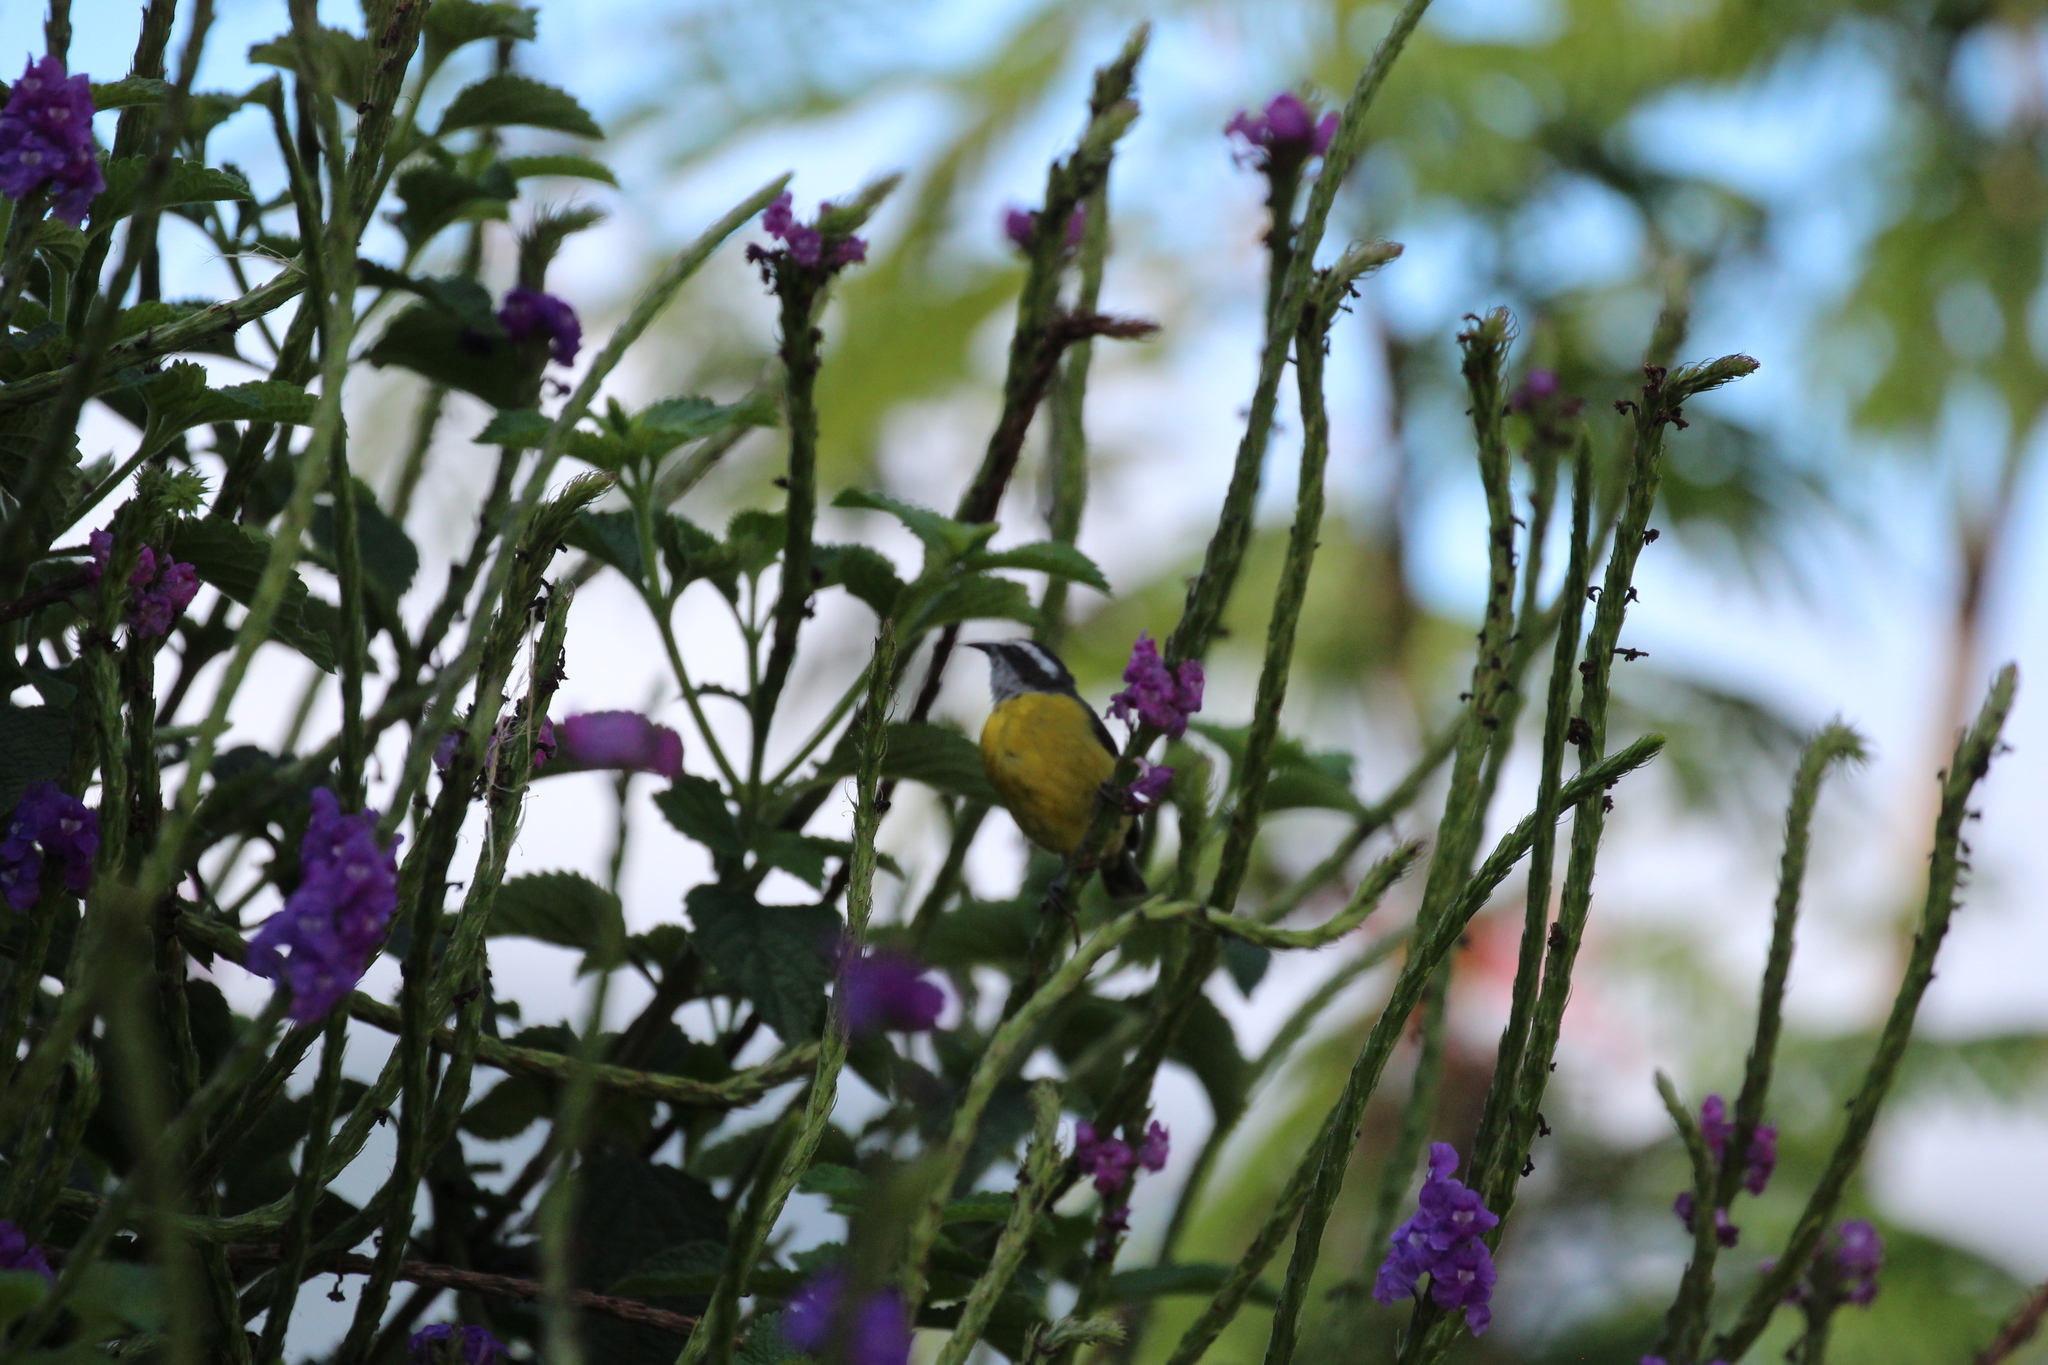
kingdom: Animalia
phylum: Chordata
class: Aves
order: Passeriformes
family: Thraupidae
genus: Coereba
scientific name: Coereba flaveola
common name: Bananaquit
